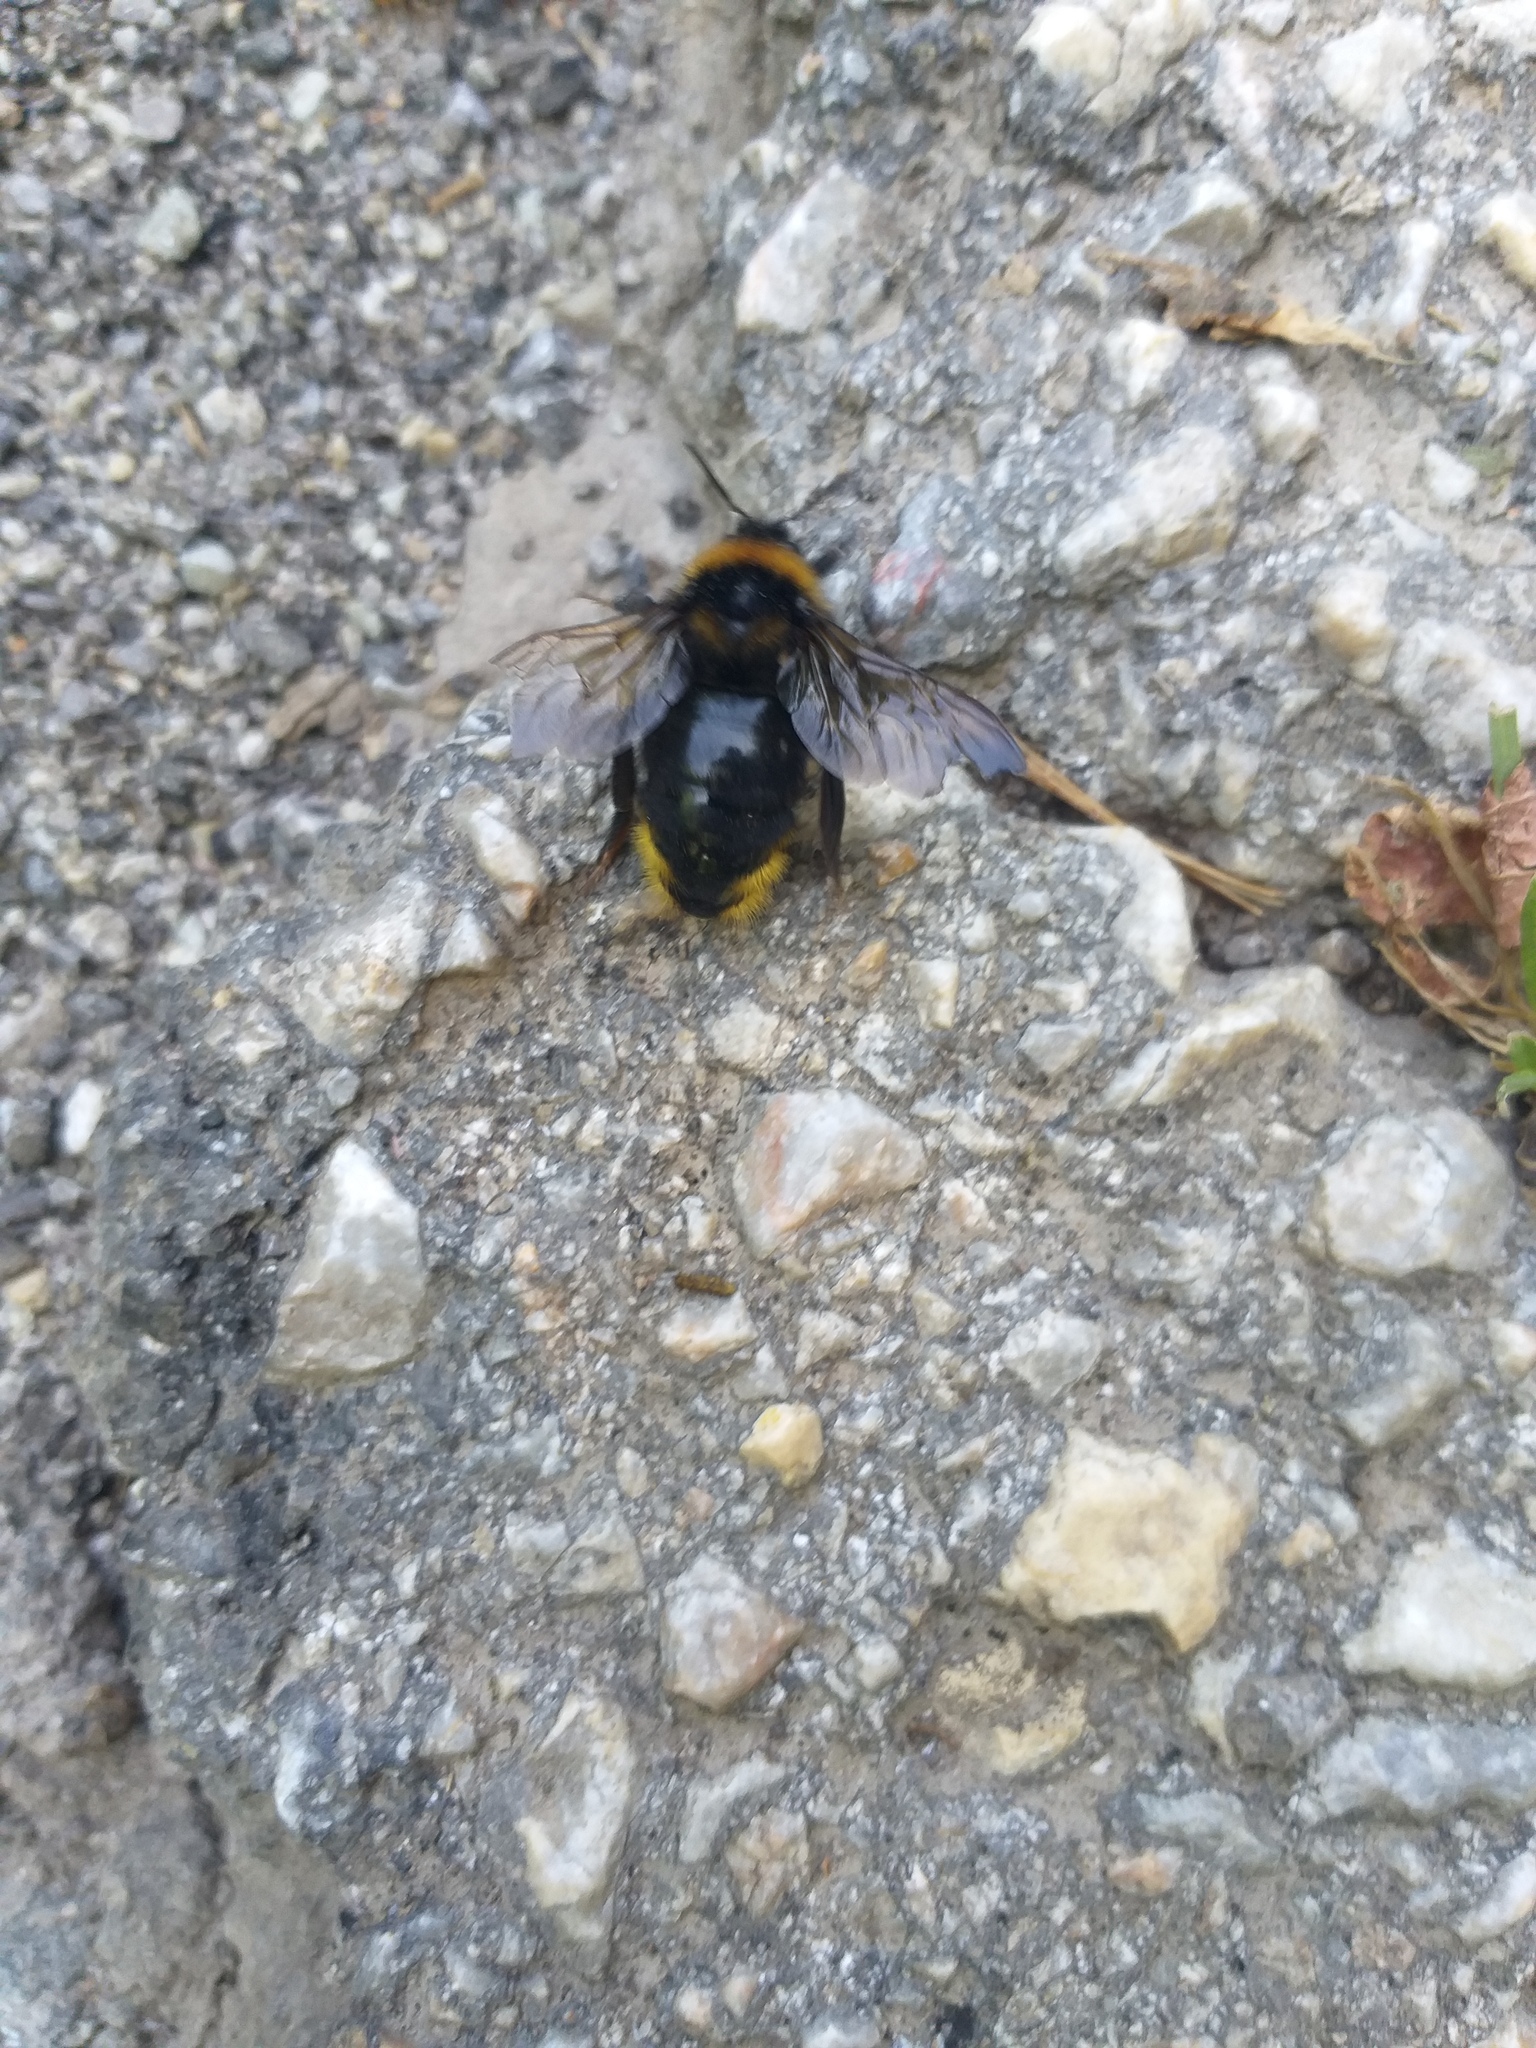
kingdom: Animalia
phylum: Arthropoda
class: Insecta
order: Hymenoptera
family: Apidae
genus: Bombus
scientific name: Bombus campestris
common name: Field cuckoo-bee
